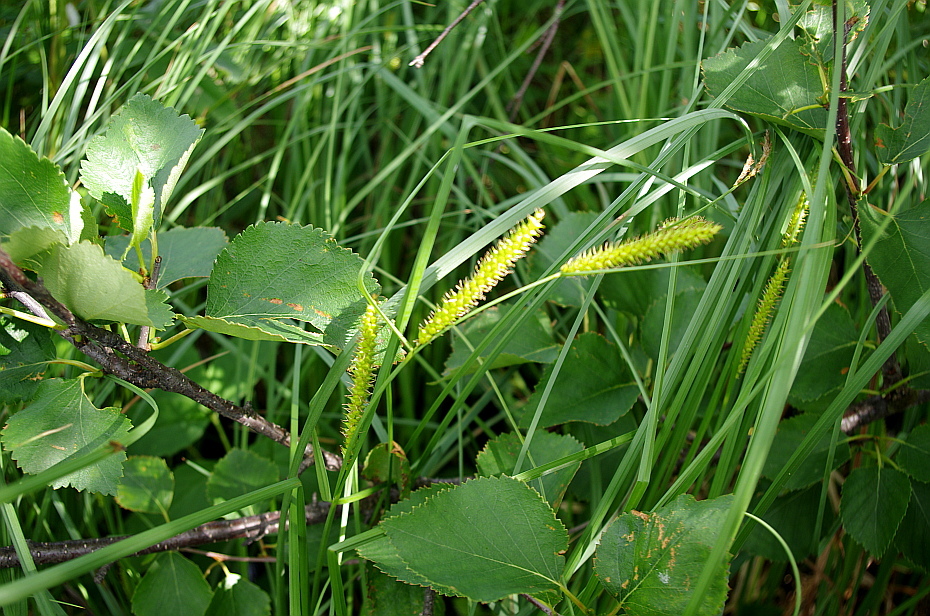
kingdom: Plantae
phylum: Tracheophyta
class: Liliopsida
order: Poales
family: Cyperaceae
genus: Carex
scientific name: Carex rostrata
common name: Bottle sedge
